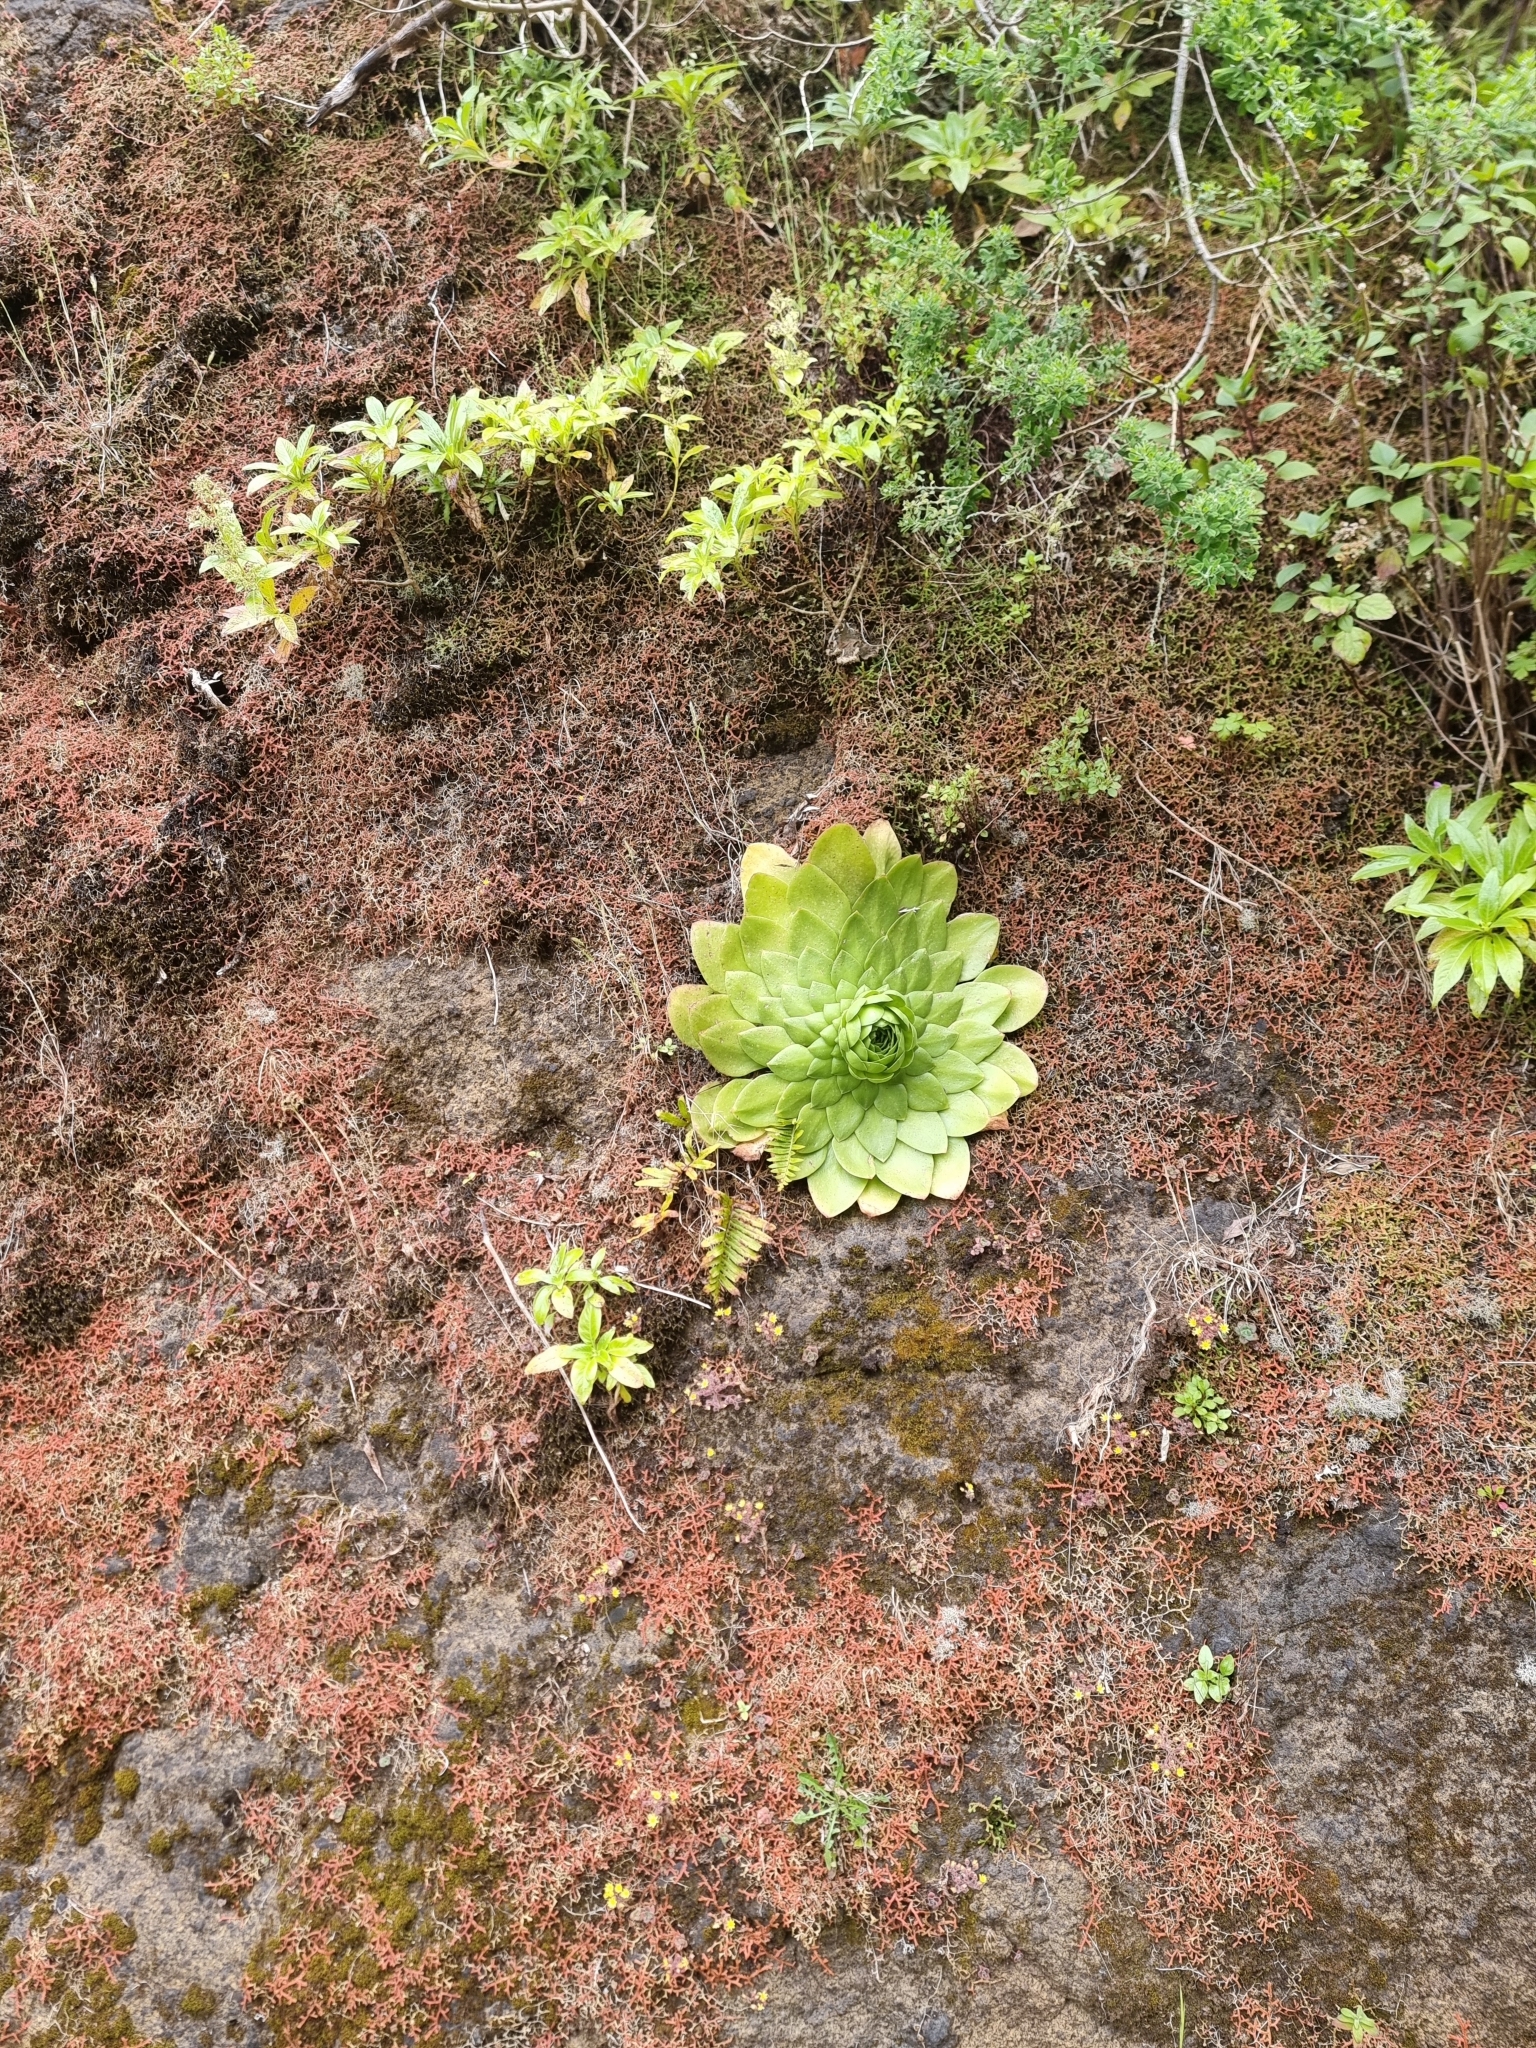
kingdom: Plantae
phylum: Tracheophyta
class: Magnoliopsida
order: Saxifragales
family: Crassulaceae
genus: Aeonium
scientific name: Aeonium glandulosum
